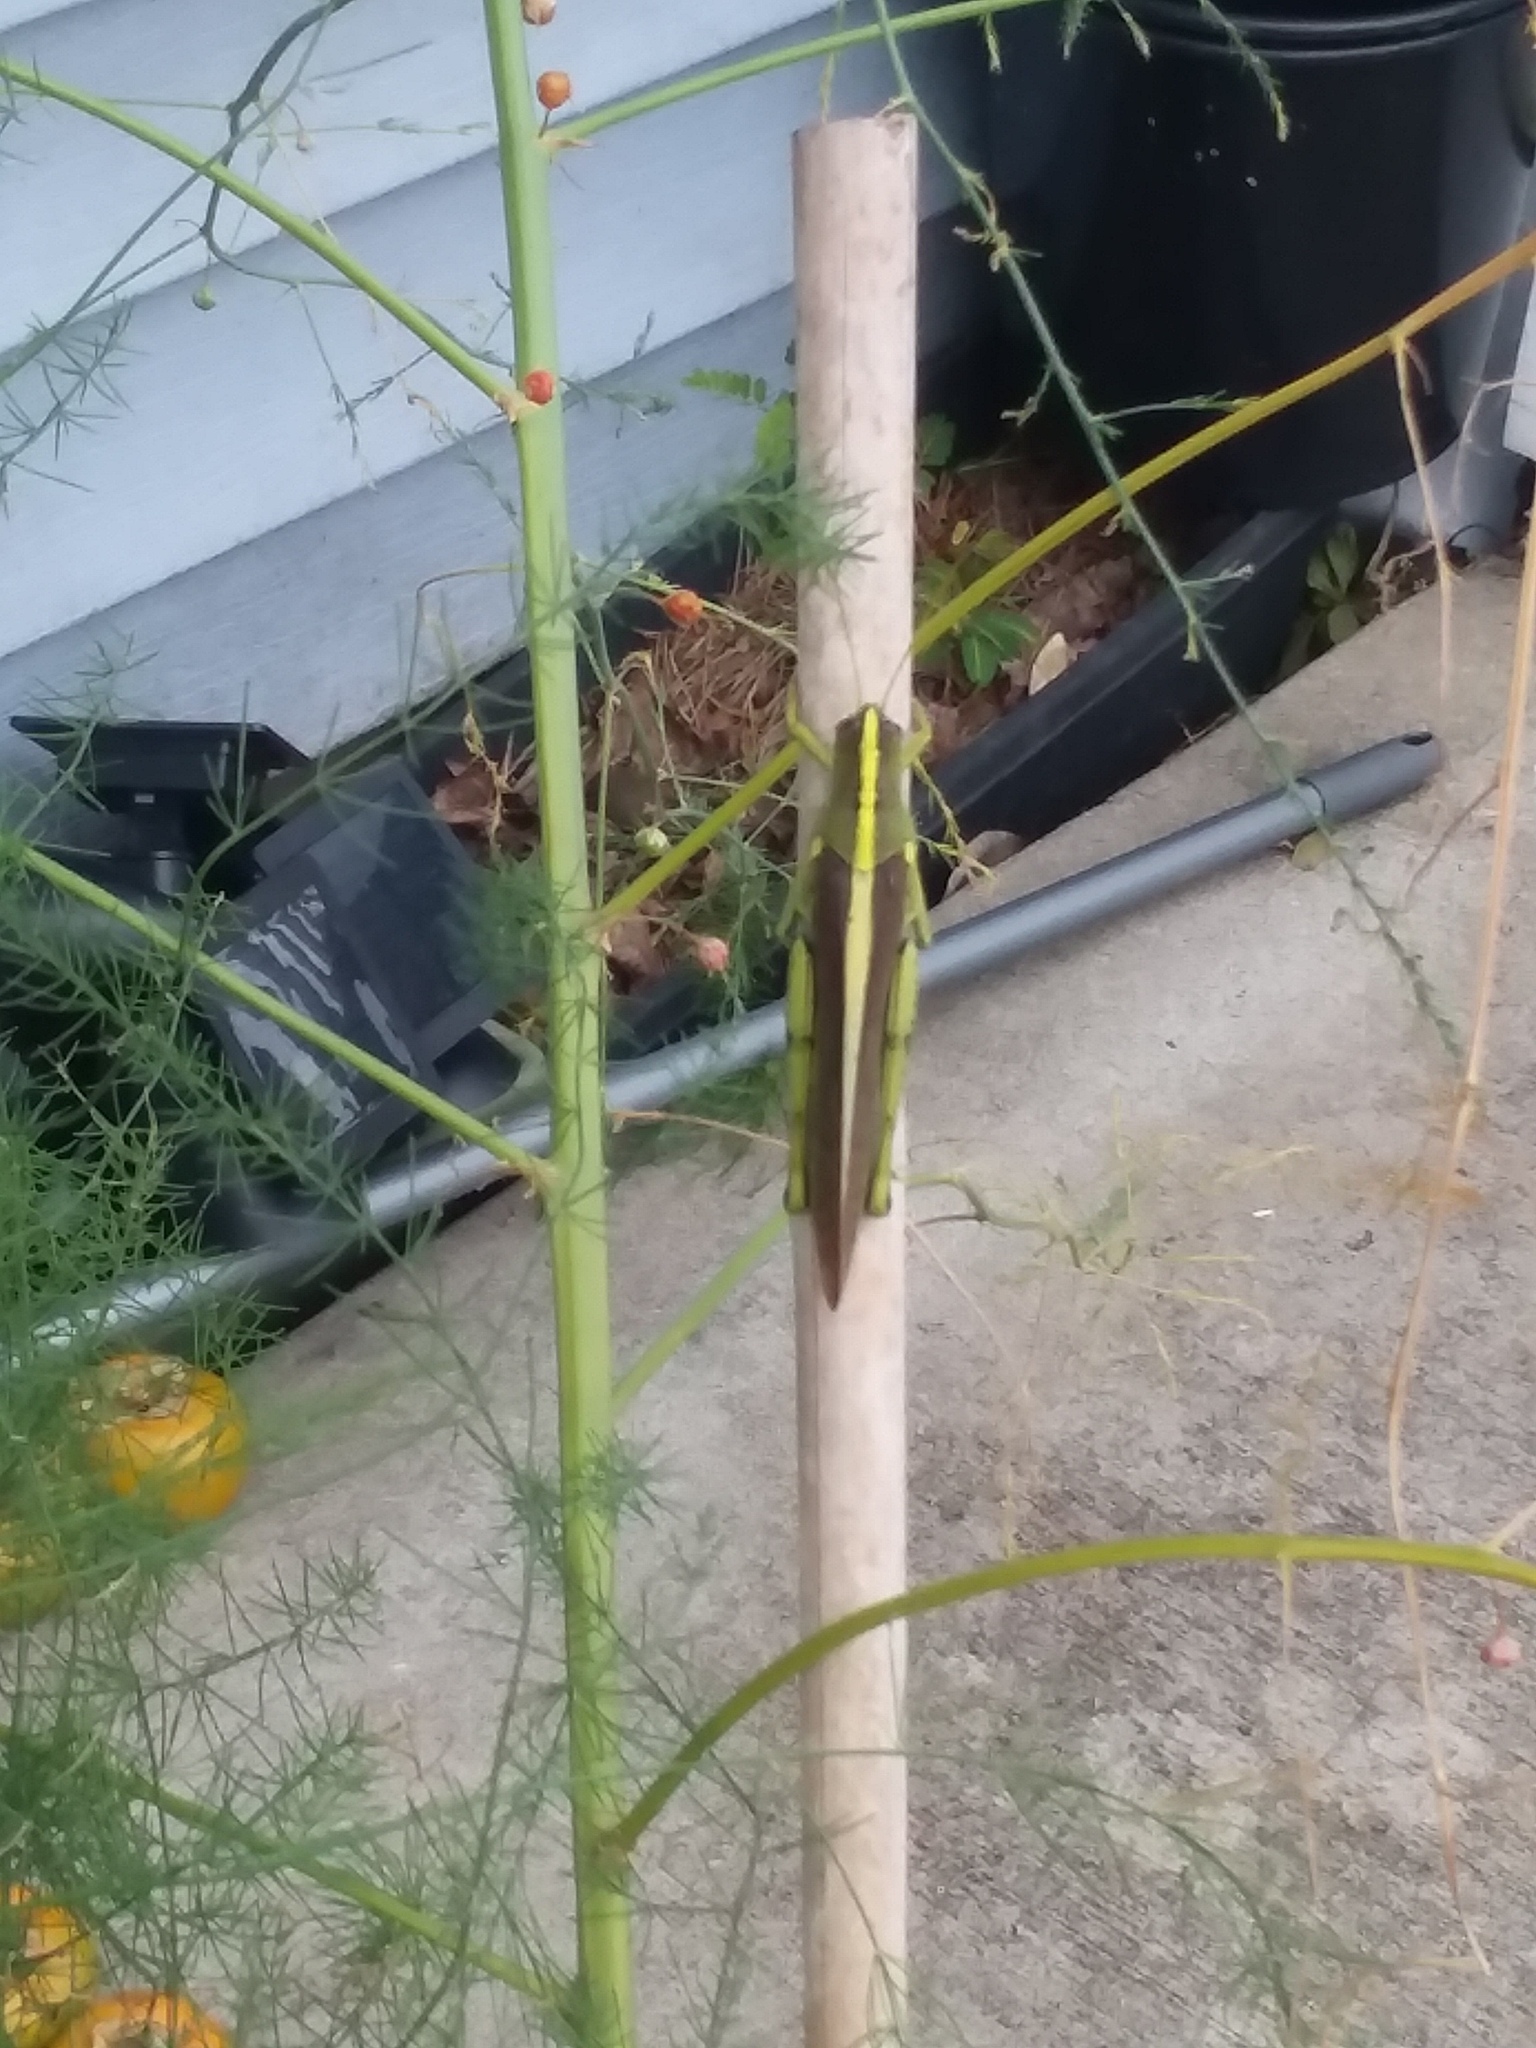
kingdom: Animalia
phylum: Arthropoda
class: Insecta
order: Orthoptera
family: Acrididae
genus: Schistocerca
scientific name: Schistocerca obscura
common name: Obscure bird grasshopper
